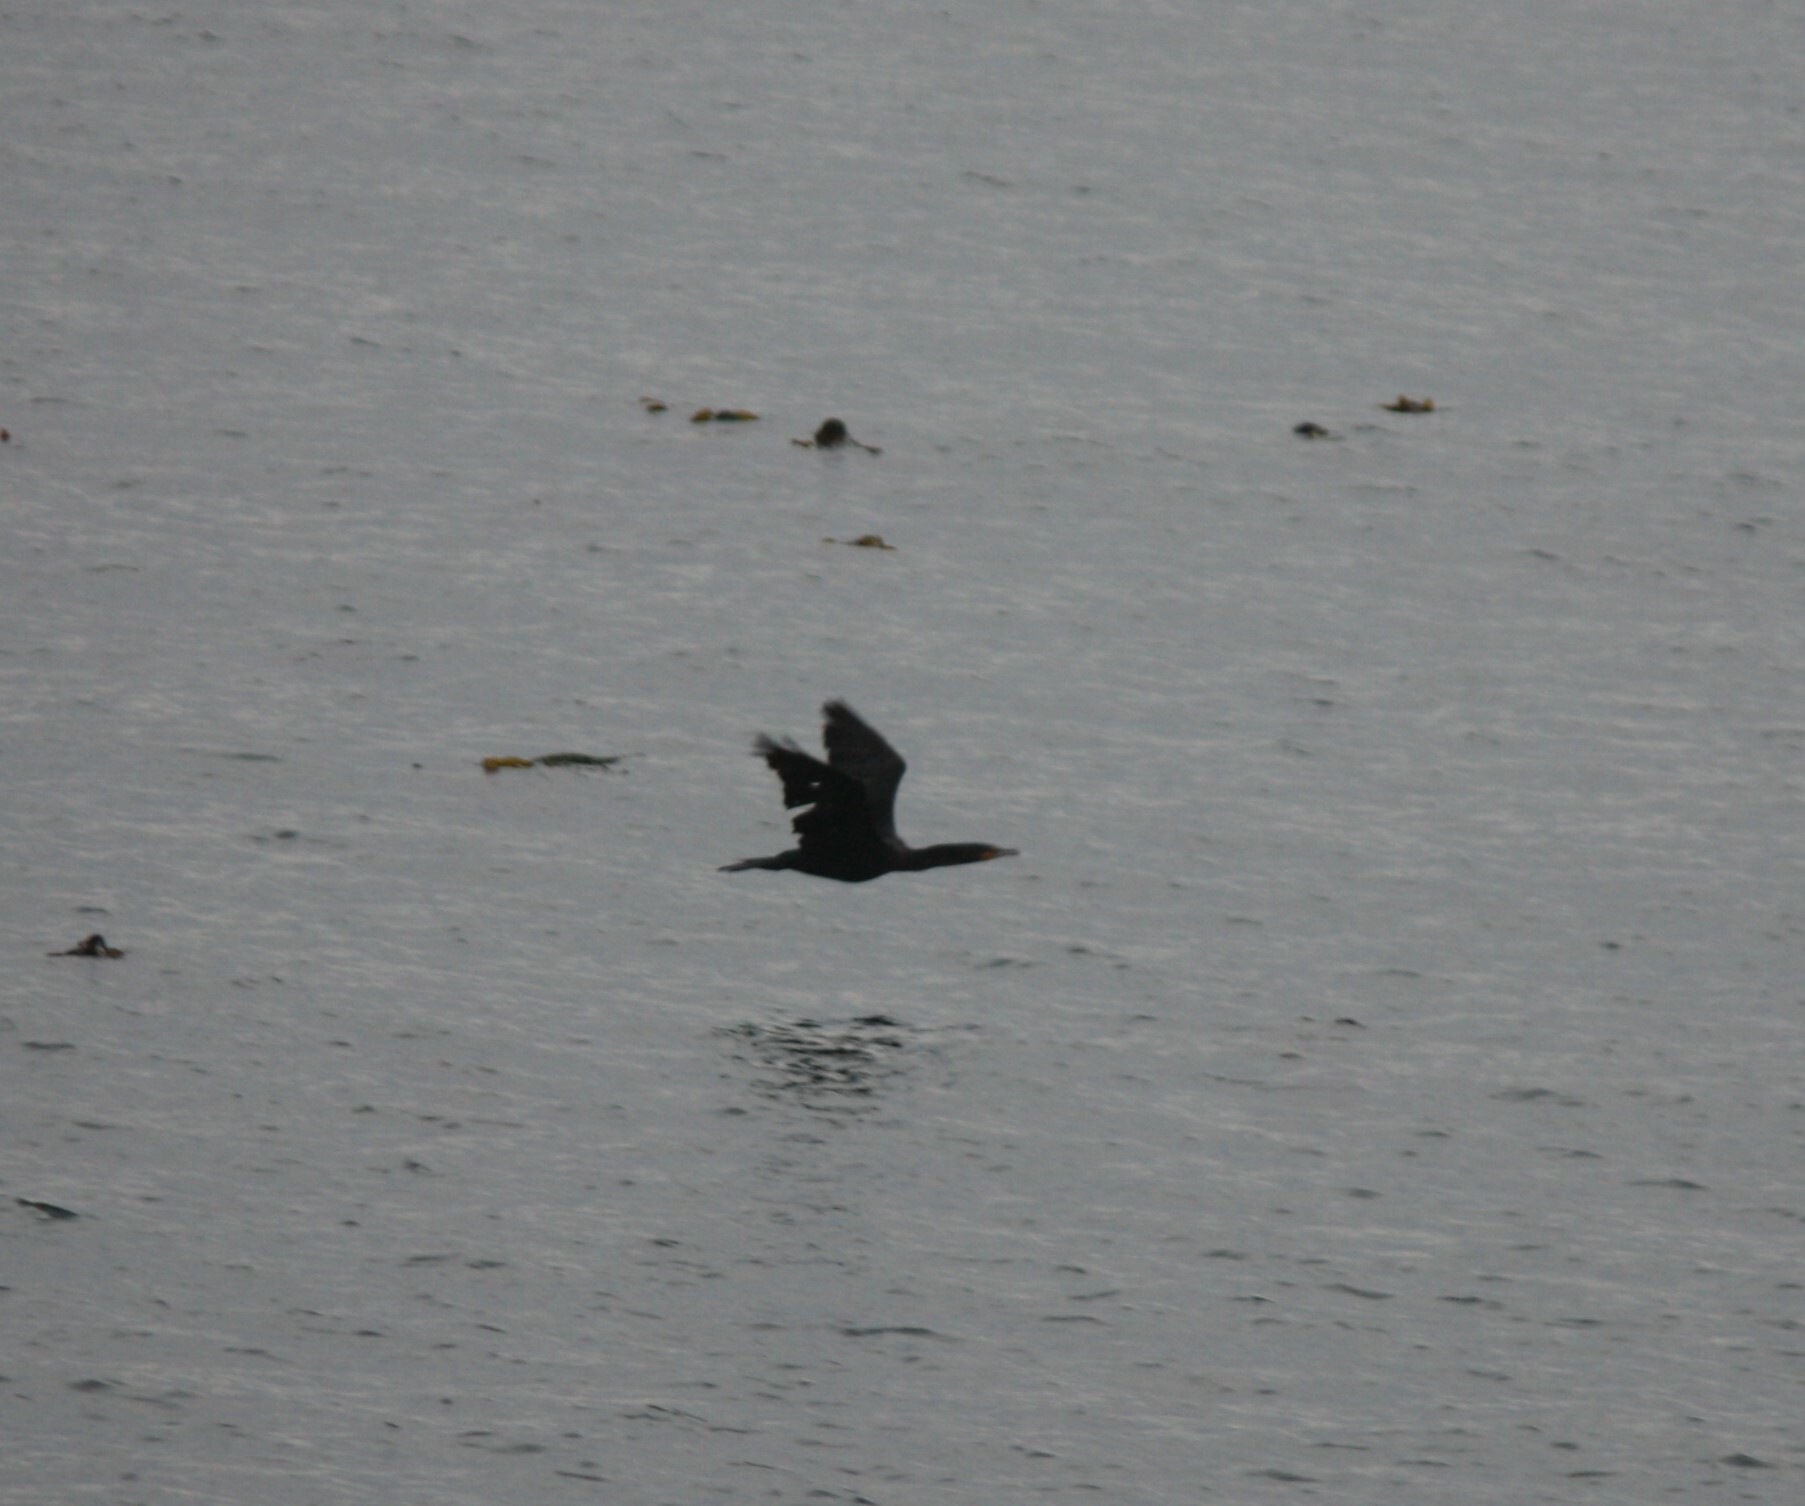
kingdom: Animalia
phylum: Chordata
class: Aves
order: Suliformes
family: Phalacrocoracidae
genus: Phalacrocorax
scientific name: Phalacrocorax auritus
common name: Double-crested cormorant
